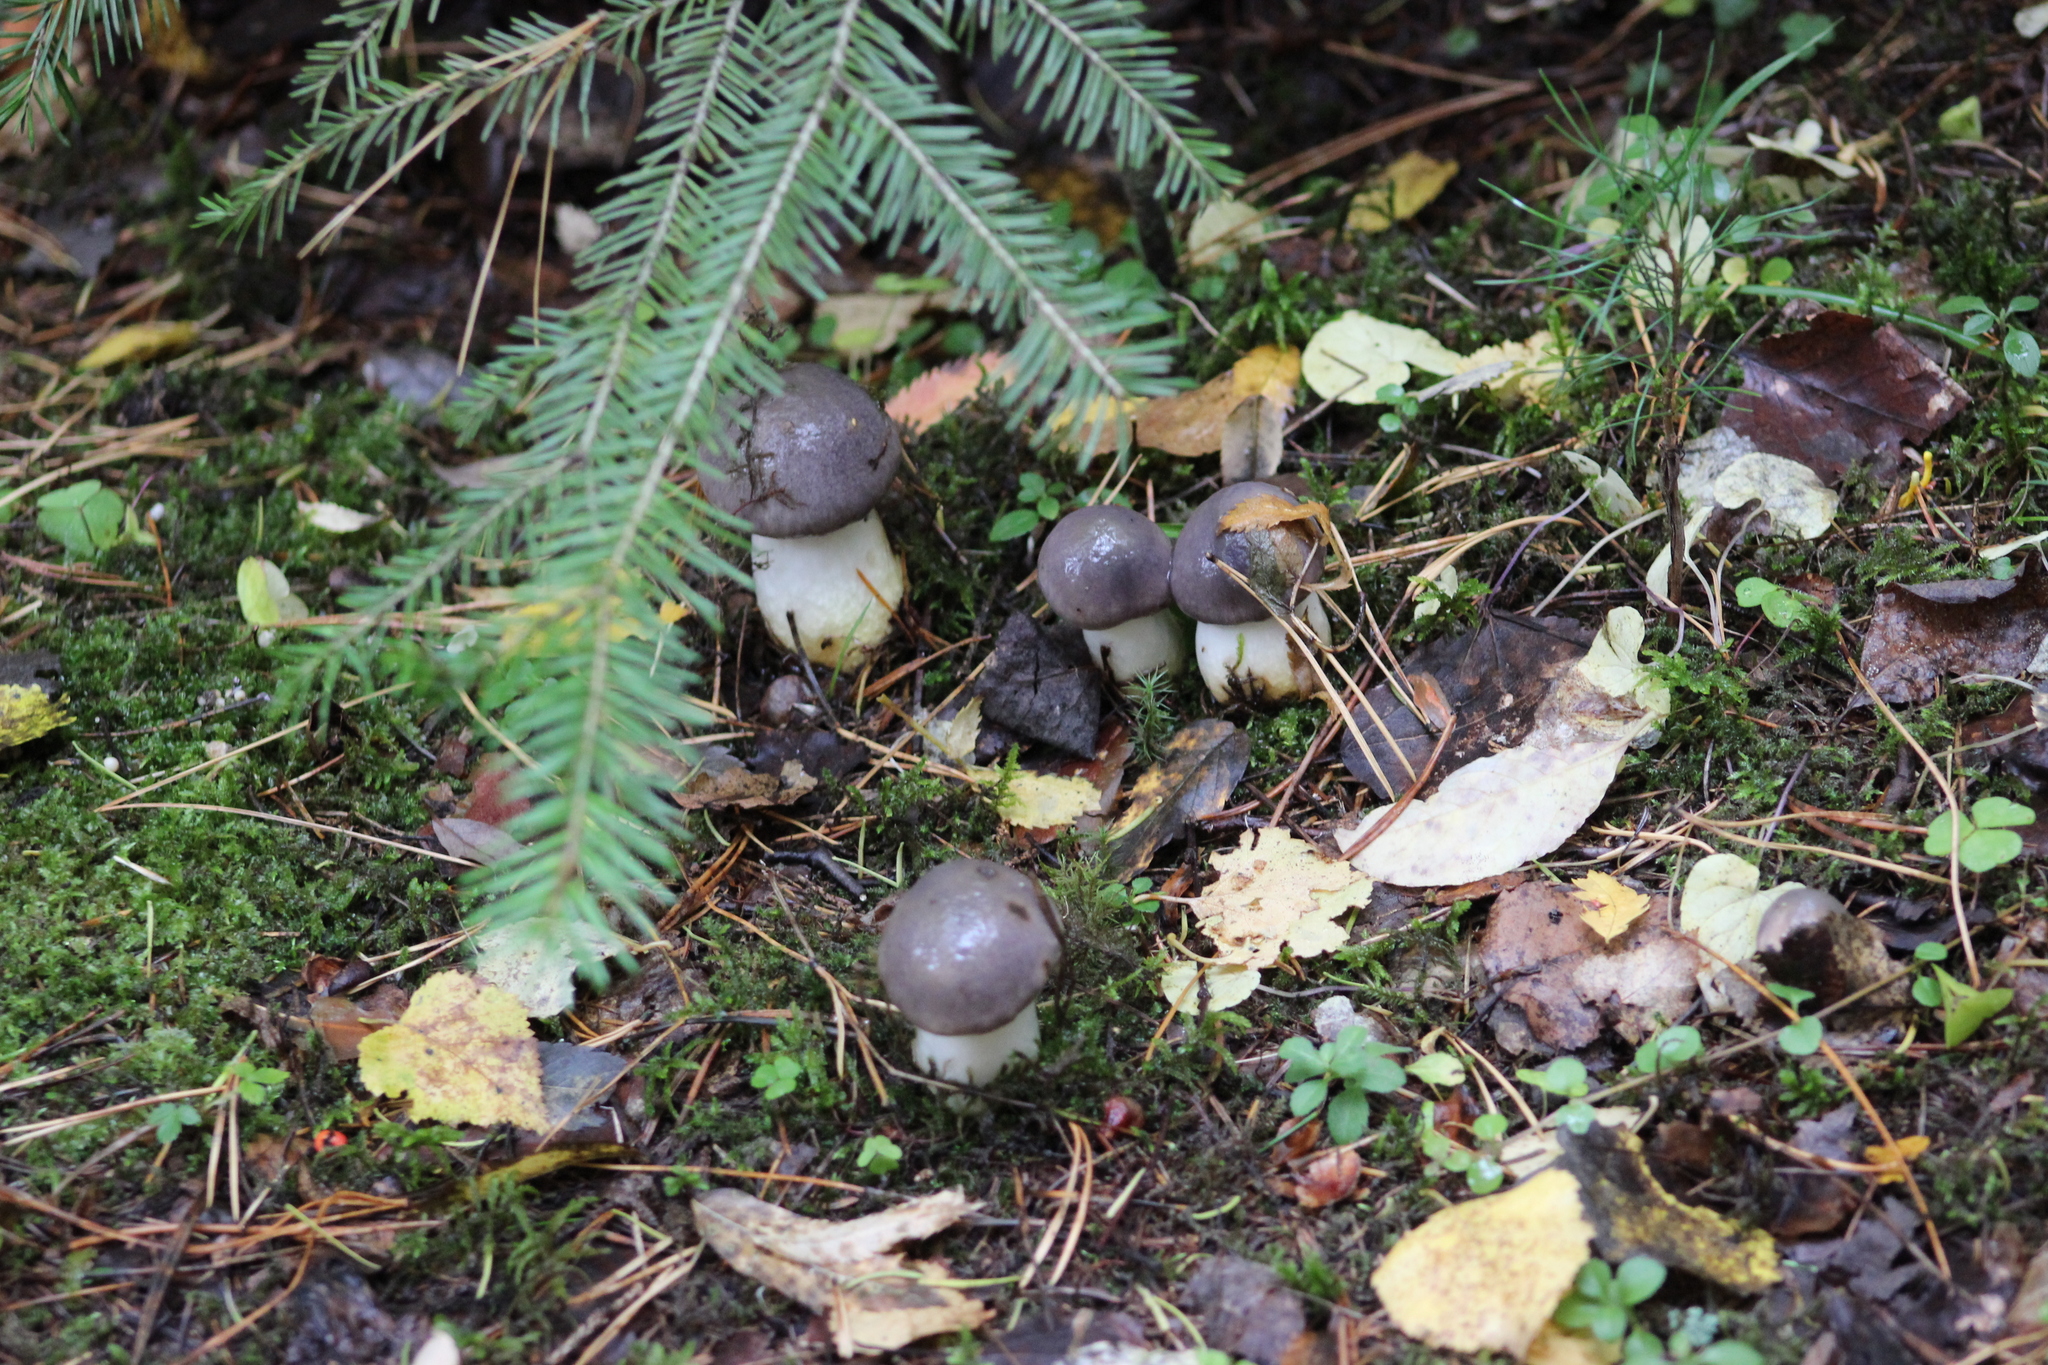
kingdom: Fungi
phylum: Basidiomycota
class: Agaricomycetes
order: Boletales
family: Gomphidiaceae
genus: Gomphidius
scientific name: Gomphidius glutinosus
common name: Slimy spike
